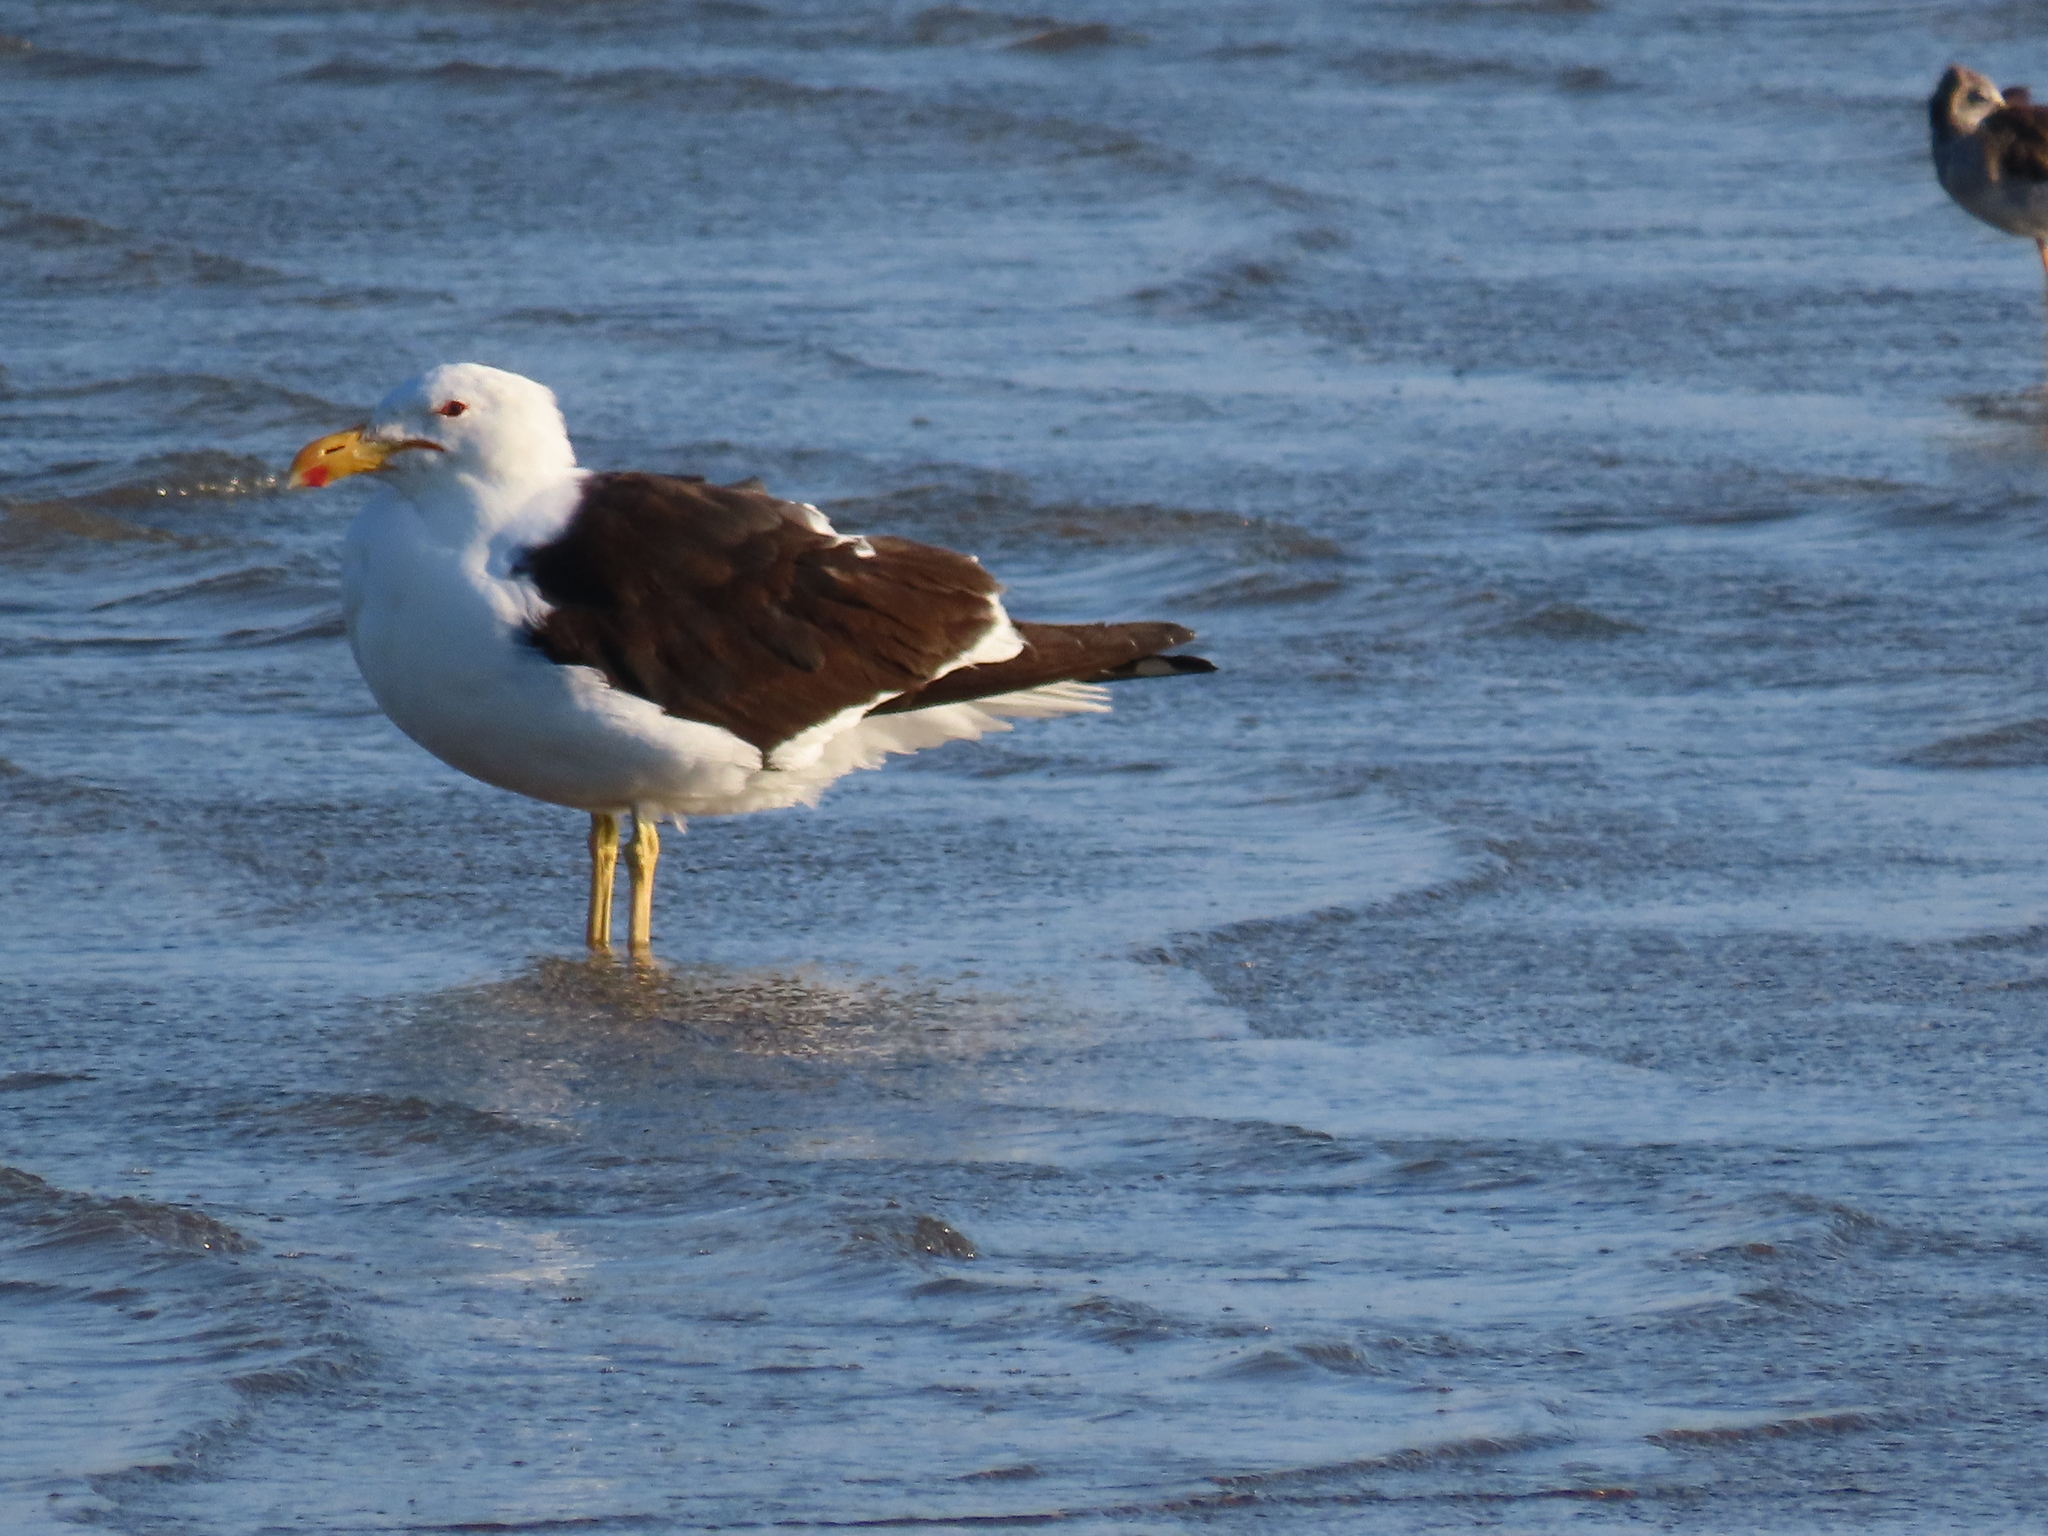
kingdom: Animalia
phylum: Chordata
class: Aves
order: Charadriiformes
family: Laridae
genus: Larus
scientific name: Larus dominicanus
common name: Kelp gull
